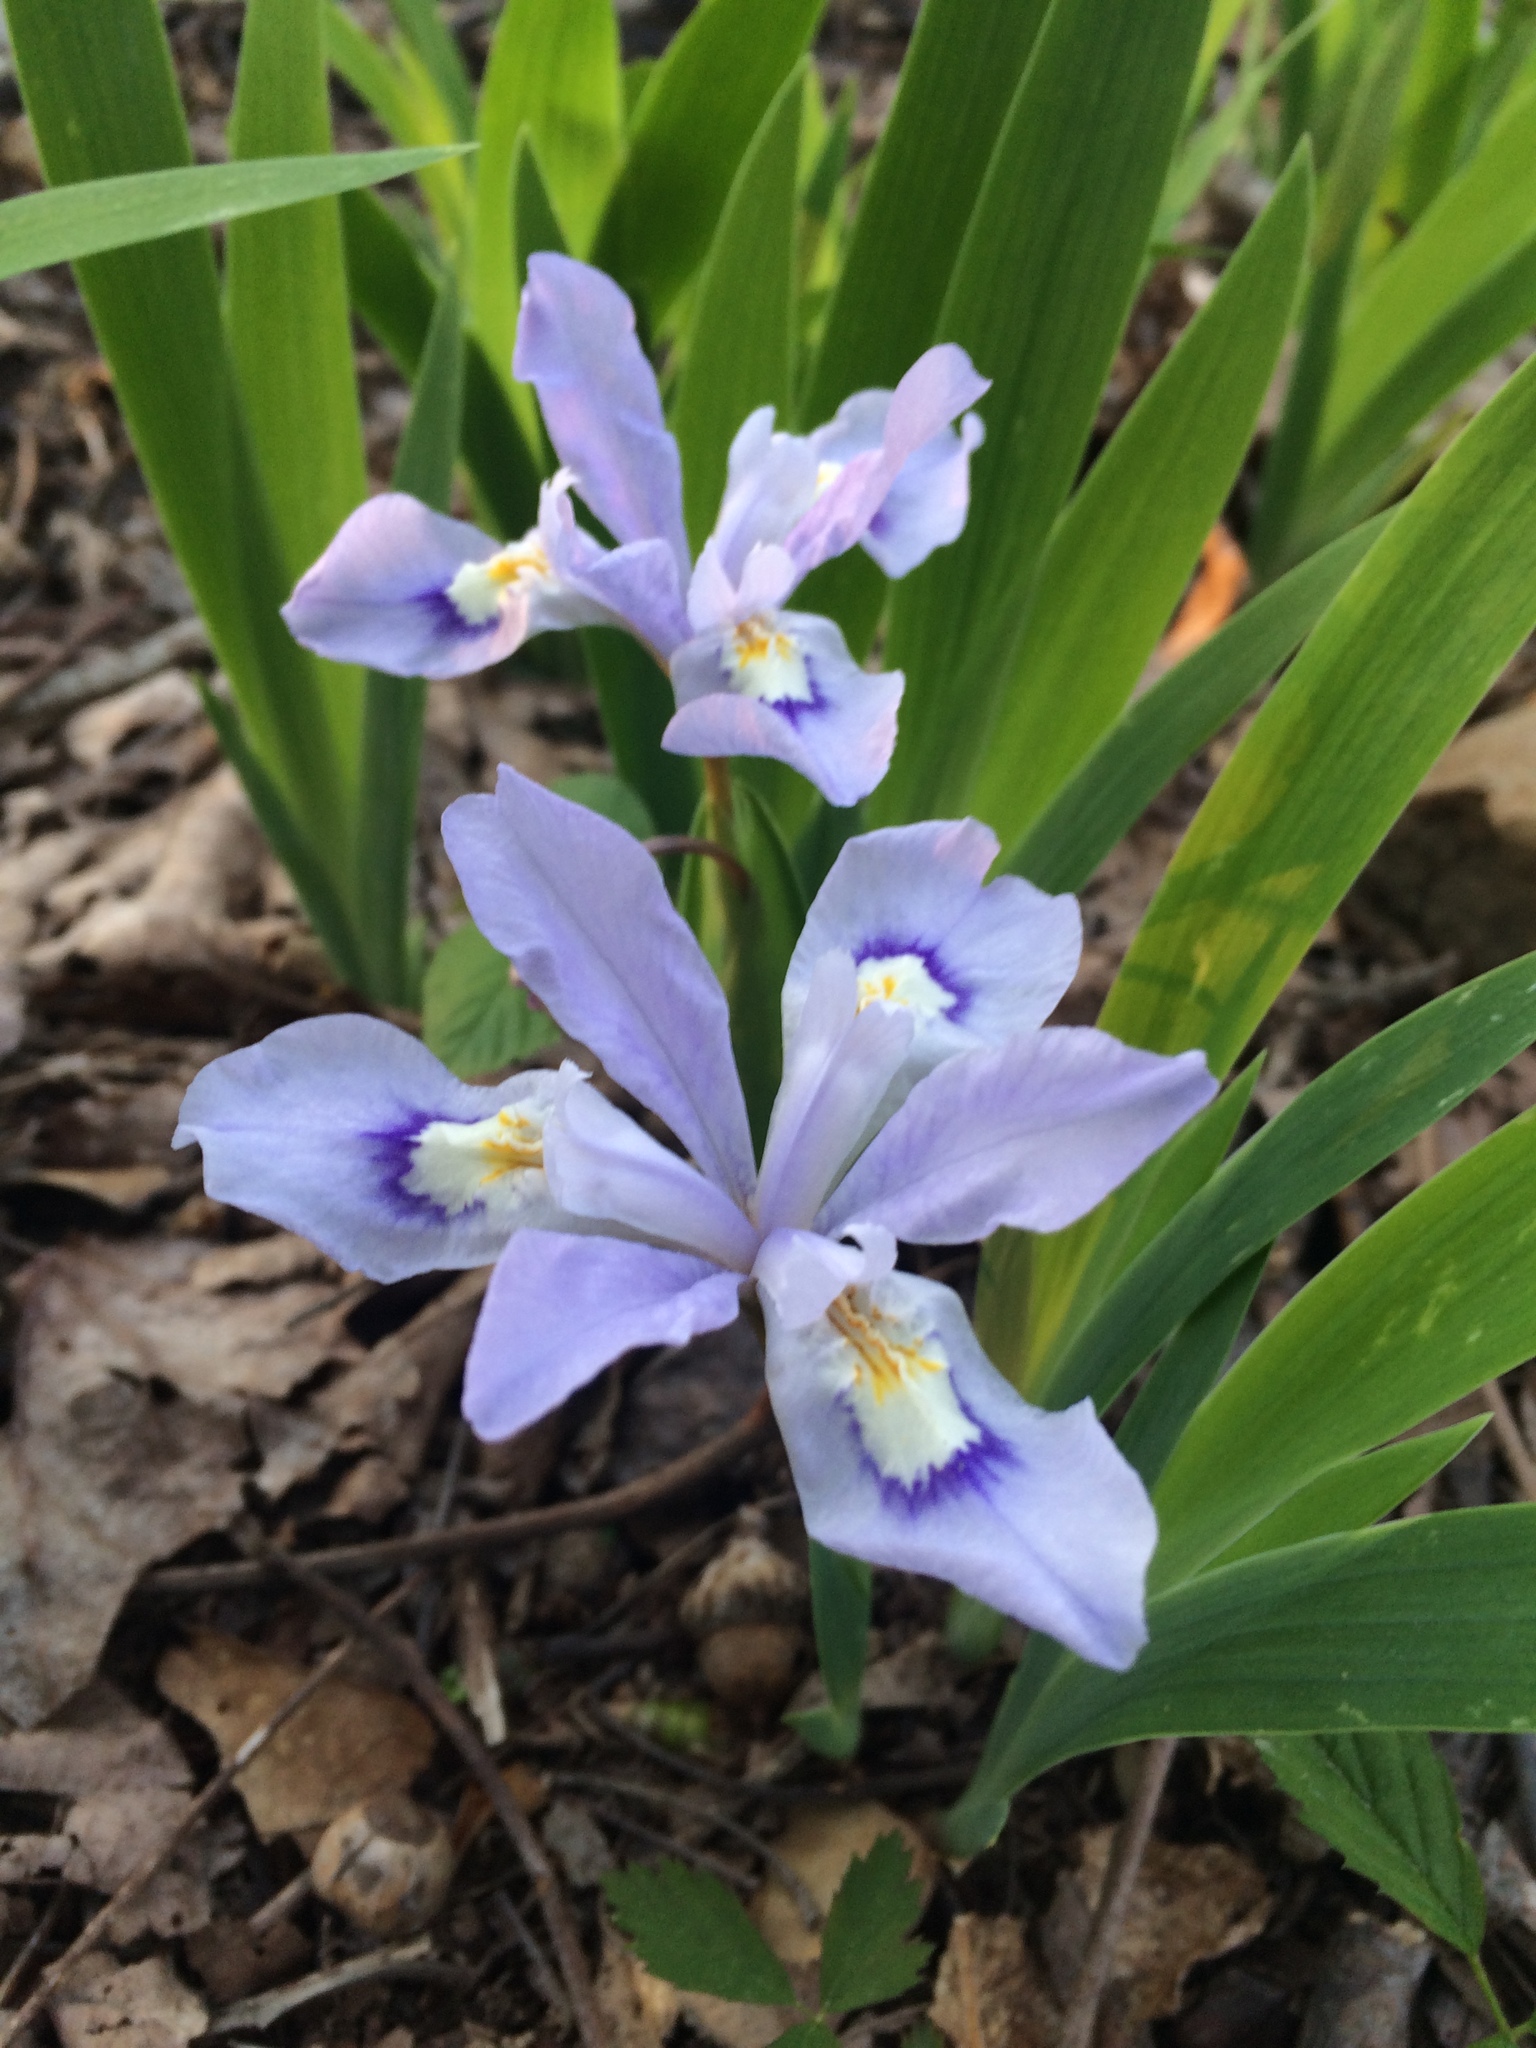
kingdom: Plantae
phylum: Tracheophyta
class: Liliopsida
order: Asparagales
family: Iridaceae
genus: Iris
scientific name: Iris cristata
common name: Crested iris
